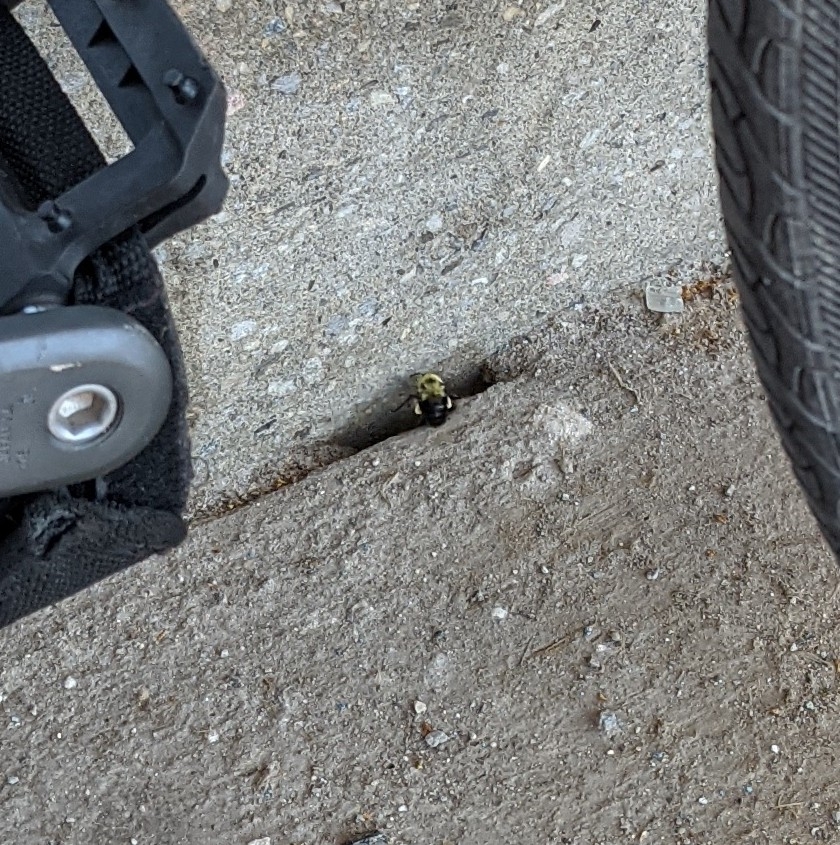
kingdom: Animalia
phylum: Arthropoda
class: Insecta
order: Hymenoptera
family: Apidae
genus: Bombus
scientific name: Bombus bimaculatus
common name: Two-spotted bumble bee
